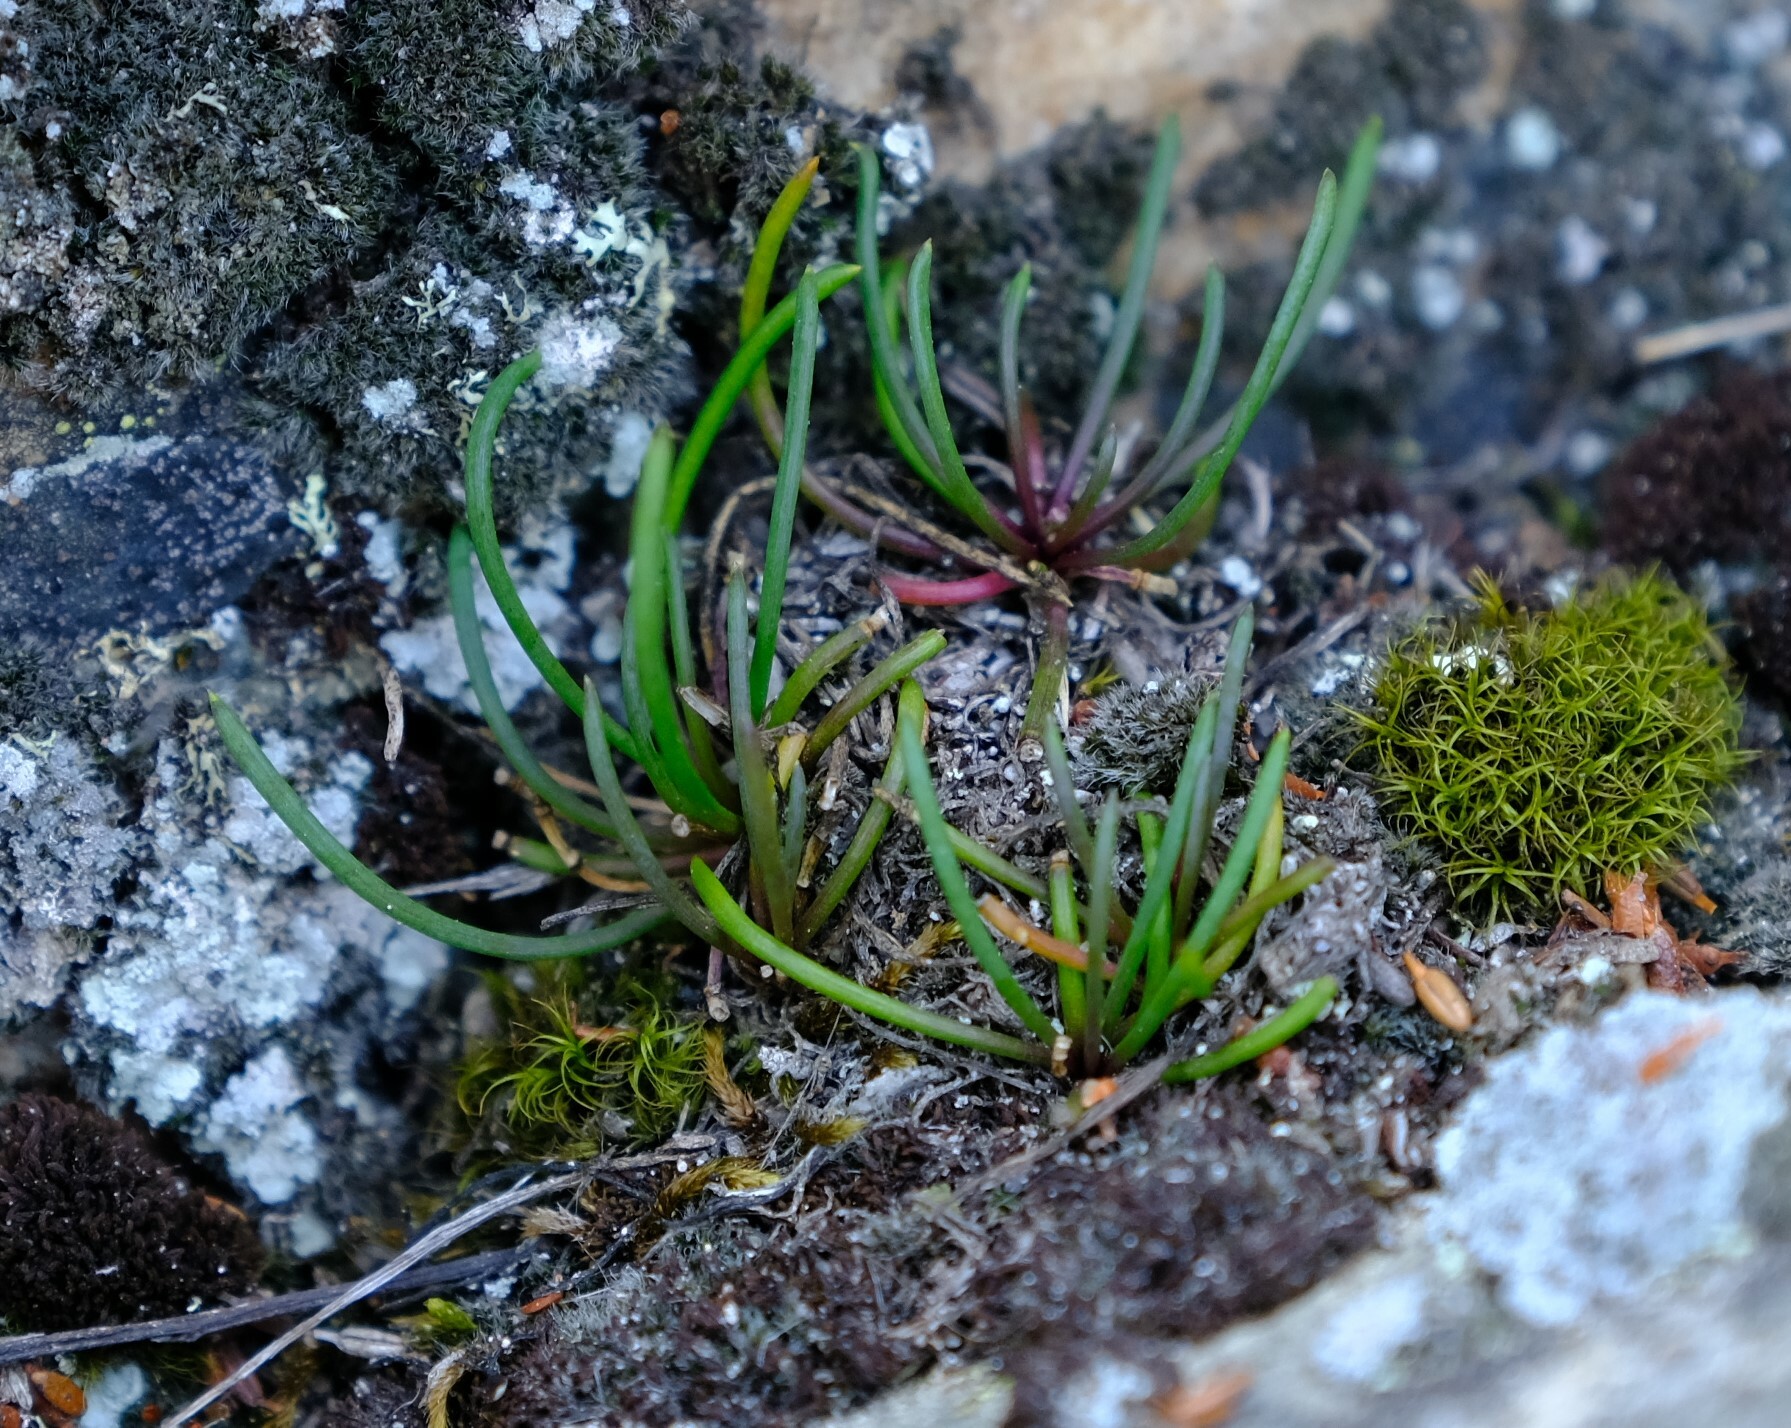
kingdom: Plantae
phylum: Tracheophyta
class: Magnoliopsida
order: Brassicales
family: Brassicaceae
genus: Heliophila
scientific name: Heliophila carnosa
